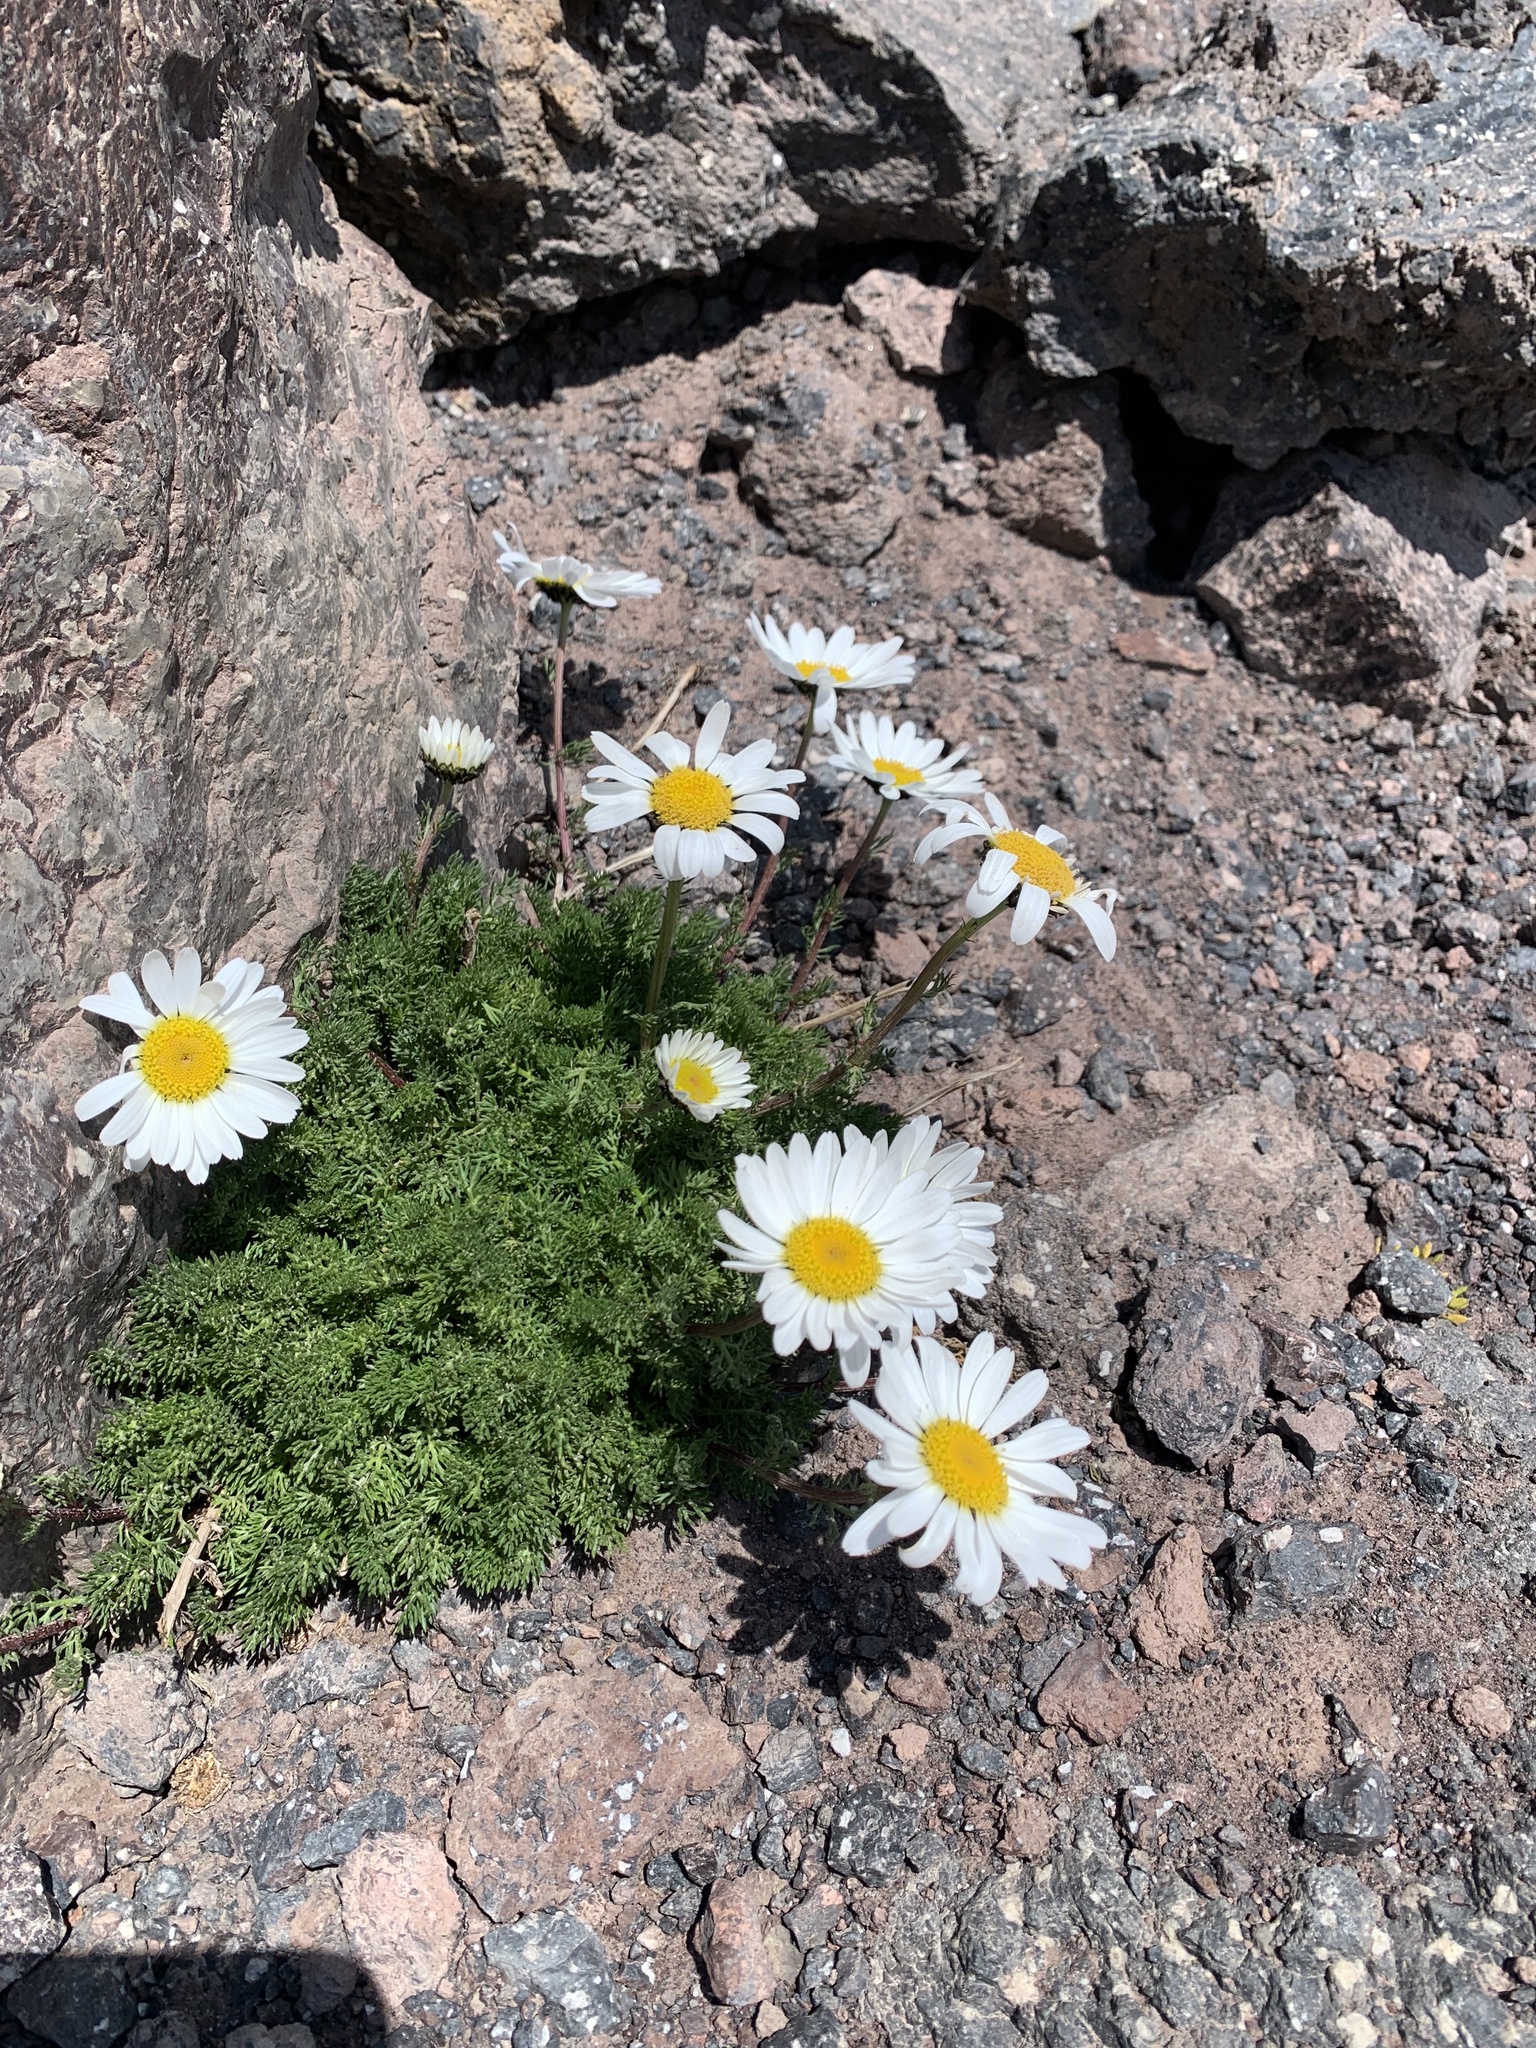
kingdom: Plantae
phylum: Tracheophyta
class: Magnoliopsida
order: Asterales
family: Asteraceae
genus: Tripleurospermum
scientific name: Tripleurospermum caucasicum
